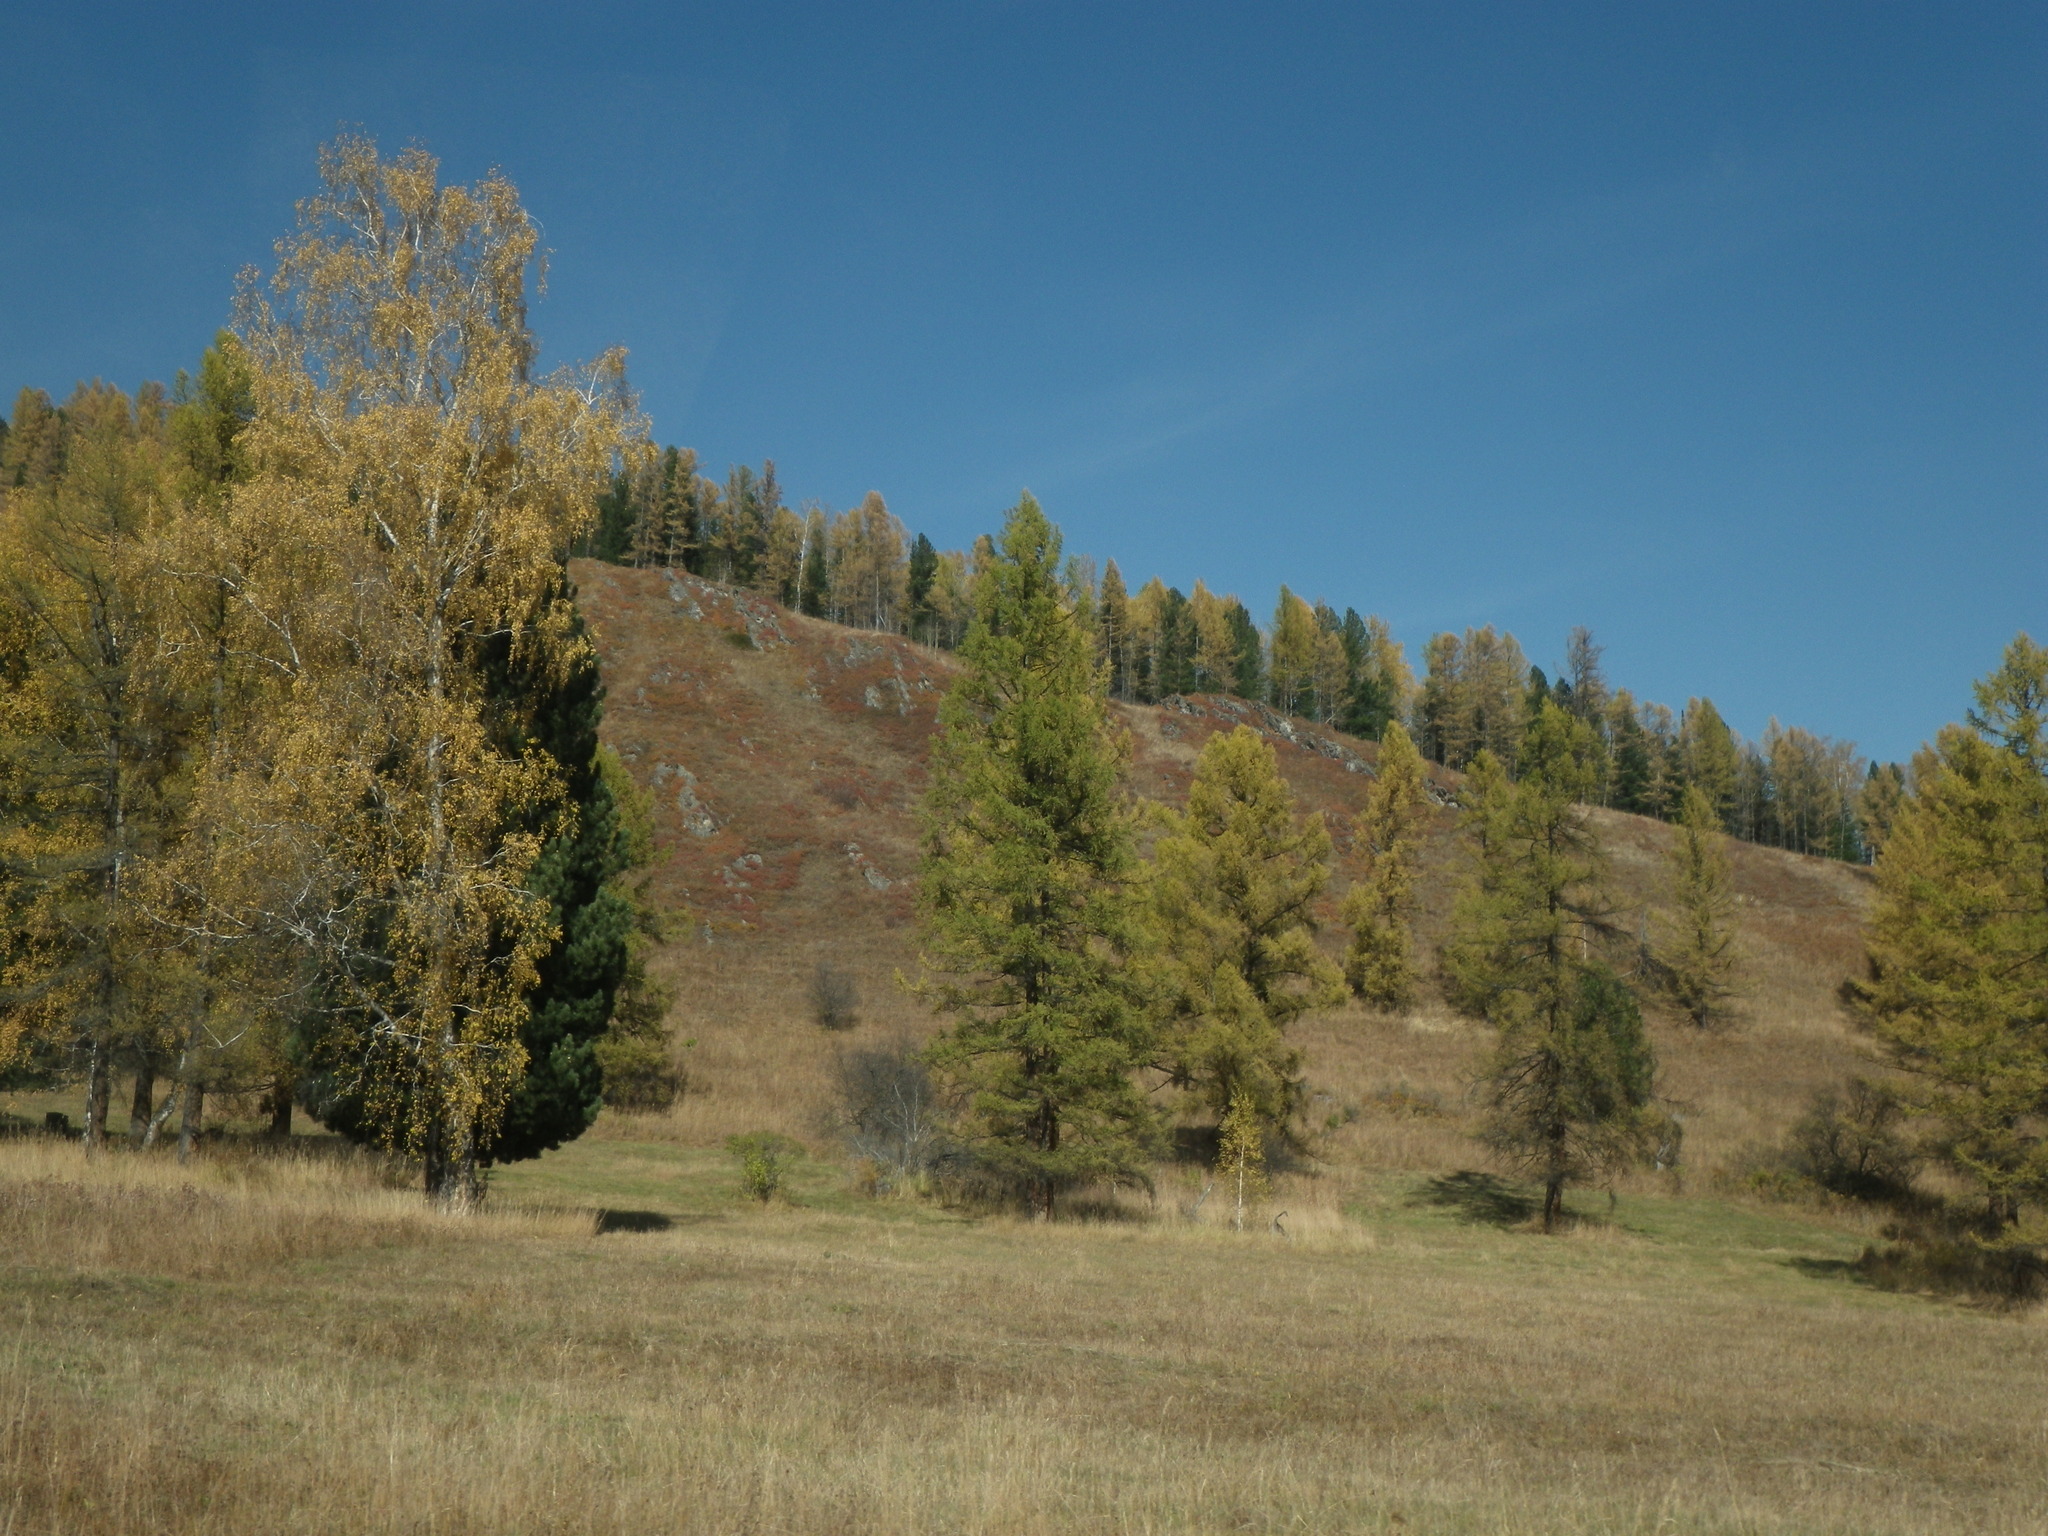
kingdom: Plantae
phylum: Tracheophyta
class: Magnoliopsida
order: Fagales
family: Betulaceae
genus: Betula
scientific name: Betula pendula
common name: Silver birch
